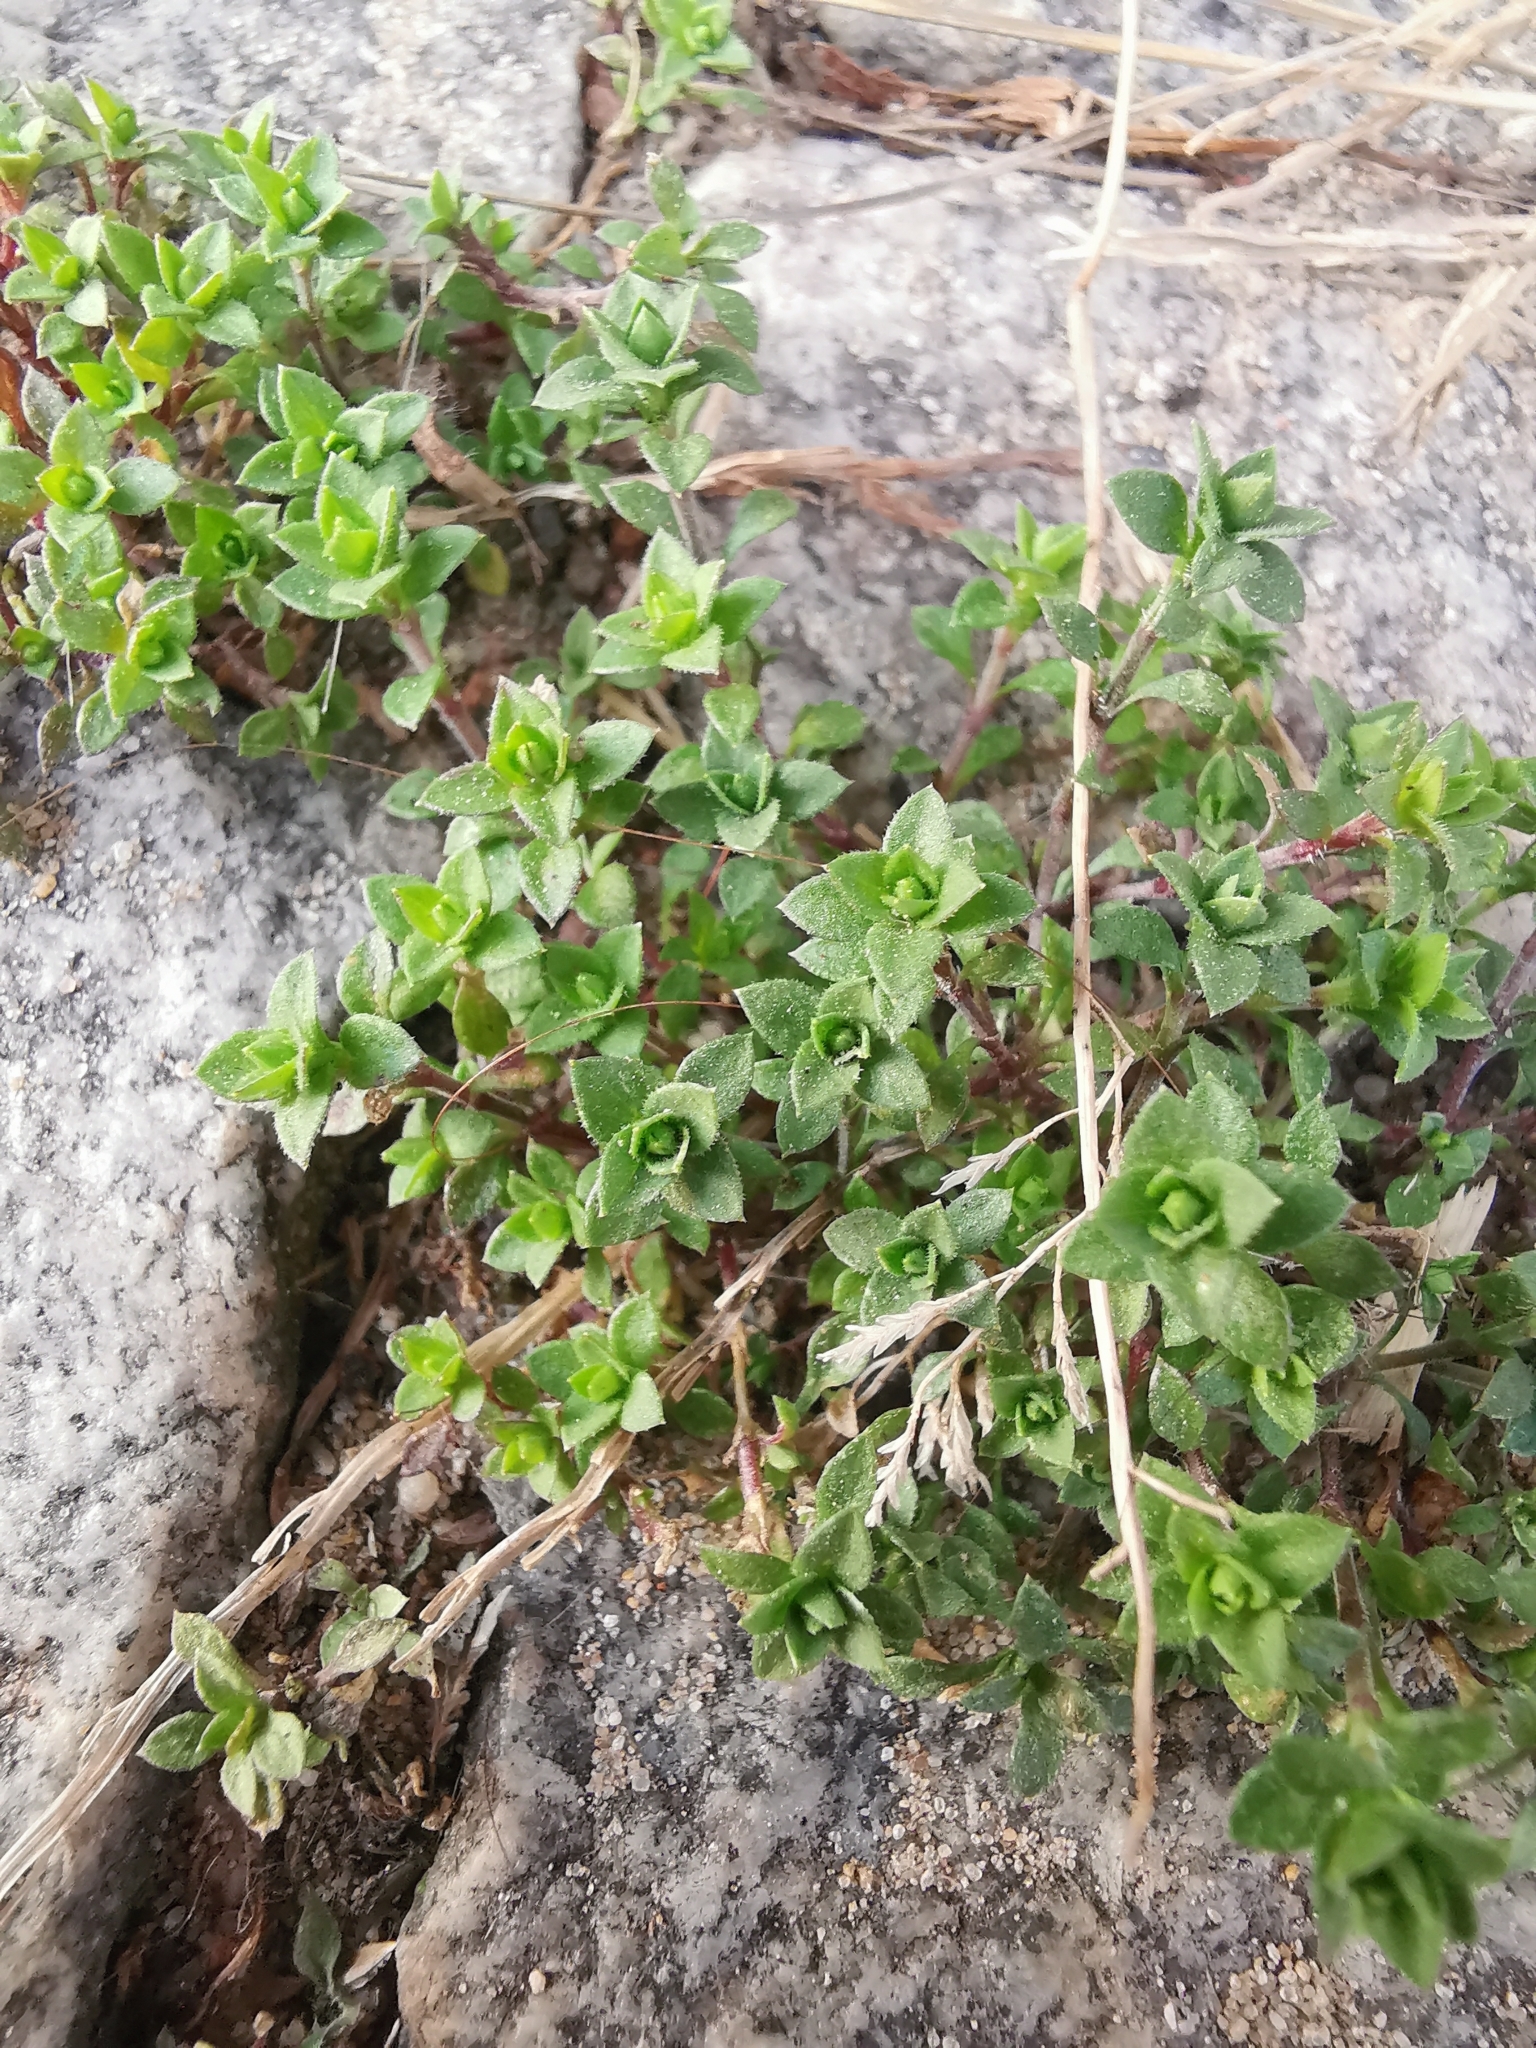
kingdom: Plantae
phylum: Tracheophyta
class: Magnoliopsida
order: Caryophyllales
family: Caryophyllaceae
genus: Arenaria
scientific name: Arenaria serpyllifolia
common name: Thyme-leaved sandwort
